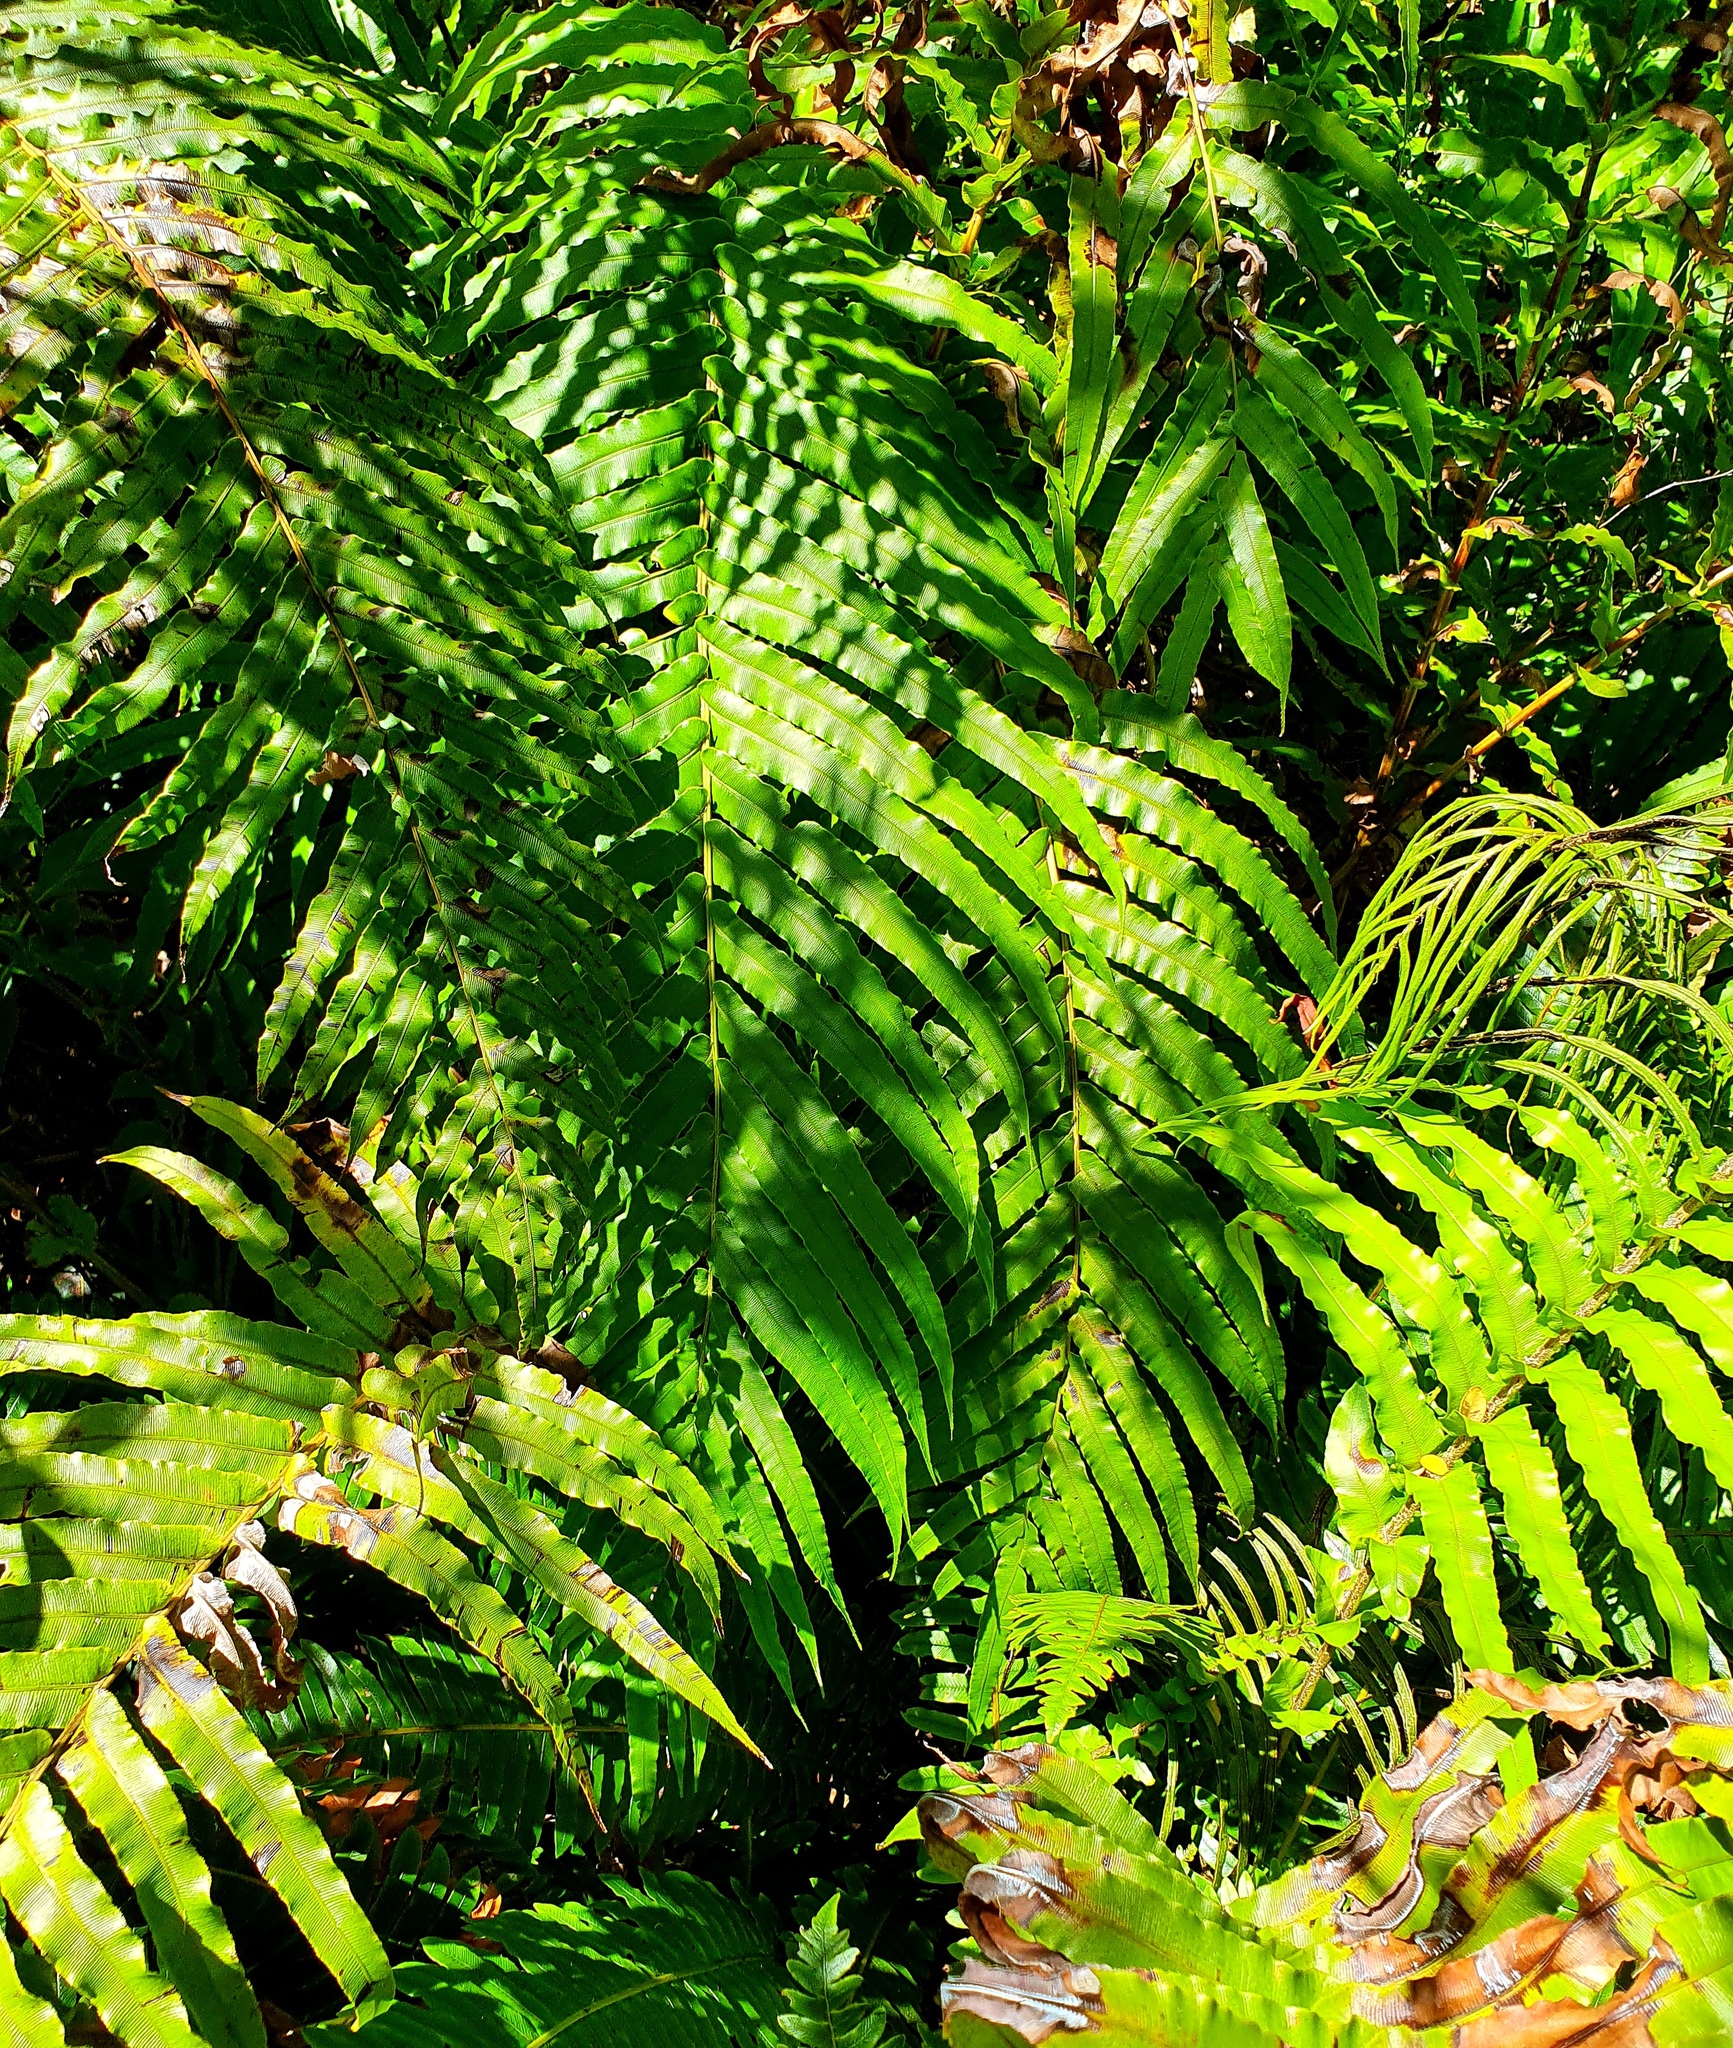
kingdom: Plantae
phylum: Tracheophyta
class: Polypodiopsida
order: Polypodiales
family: Blechnaceae
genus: Parablechnum
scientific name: Parablechnum novae-zelandiae
